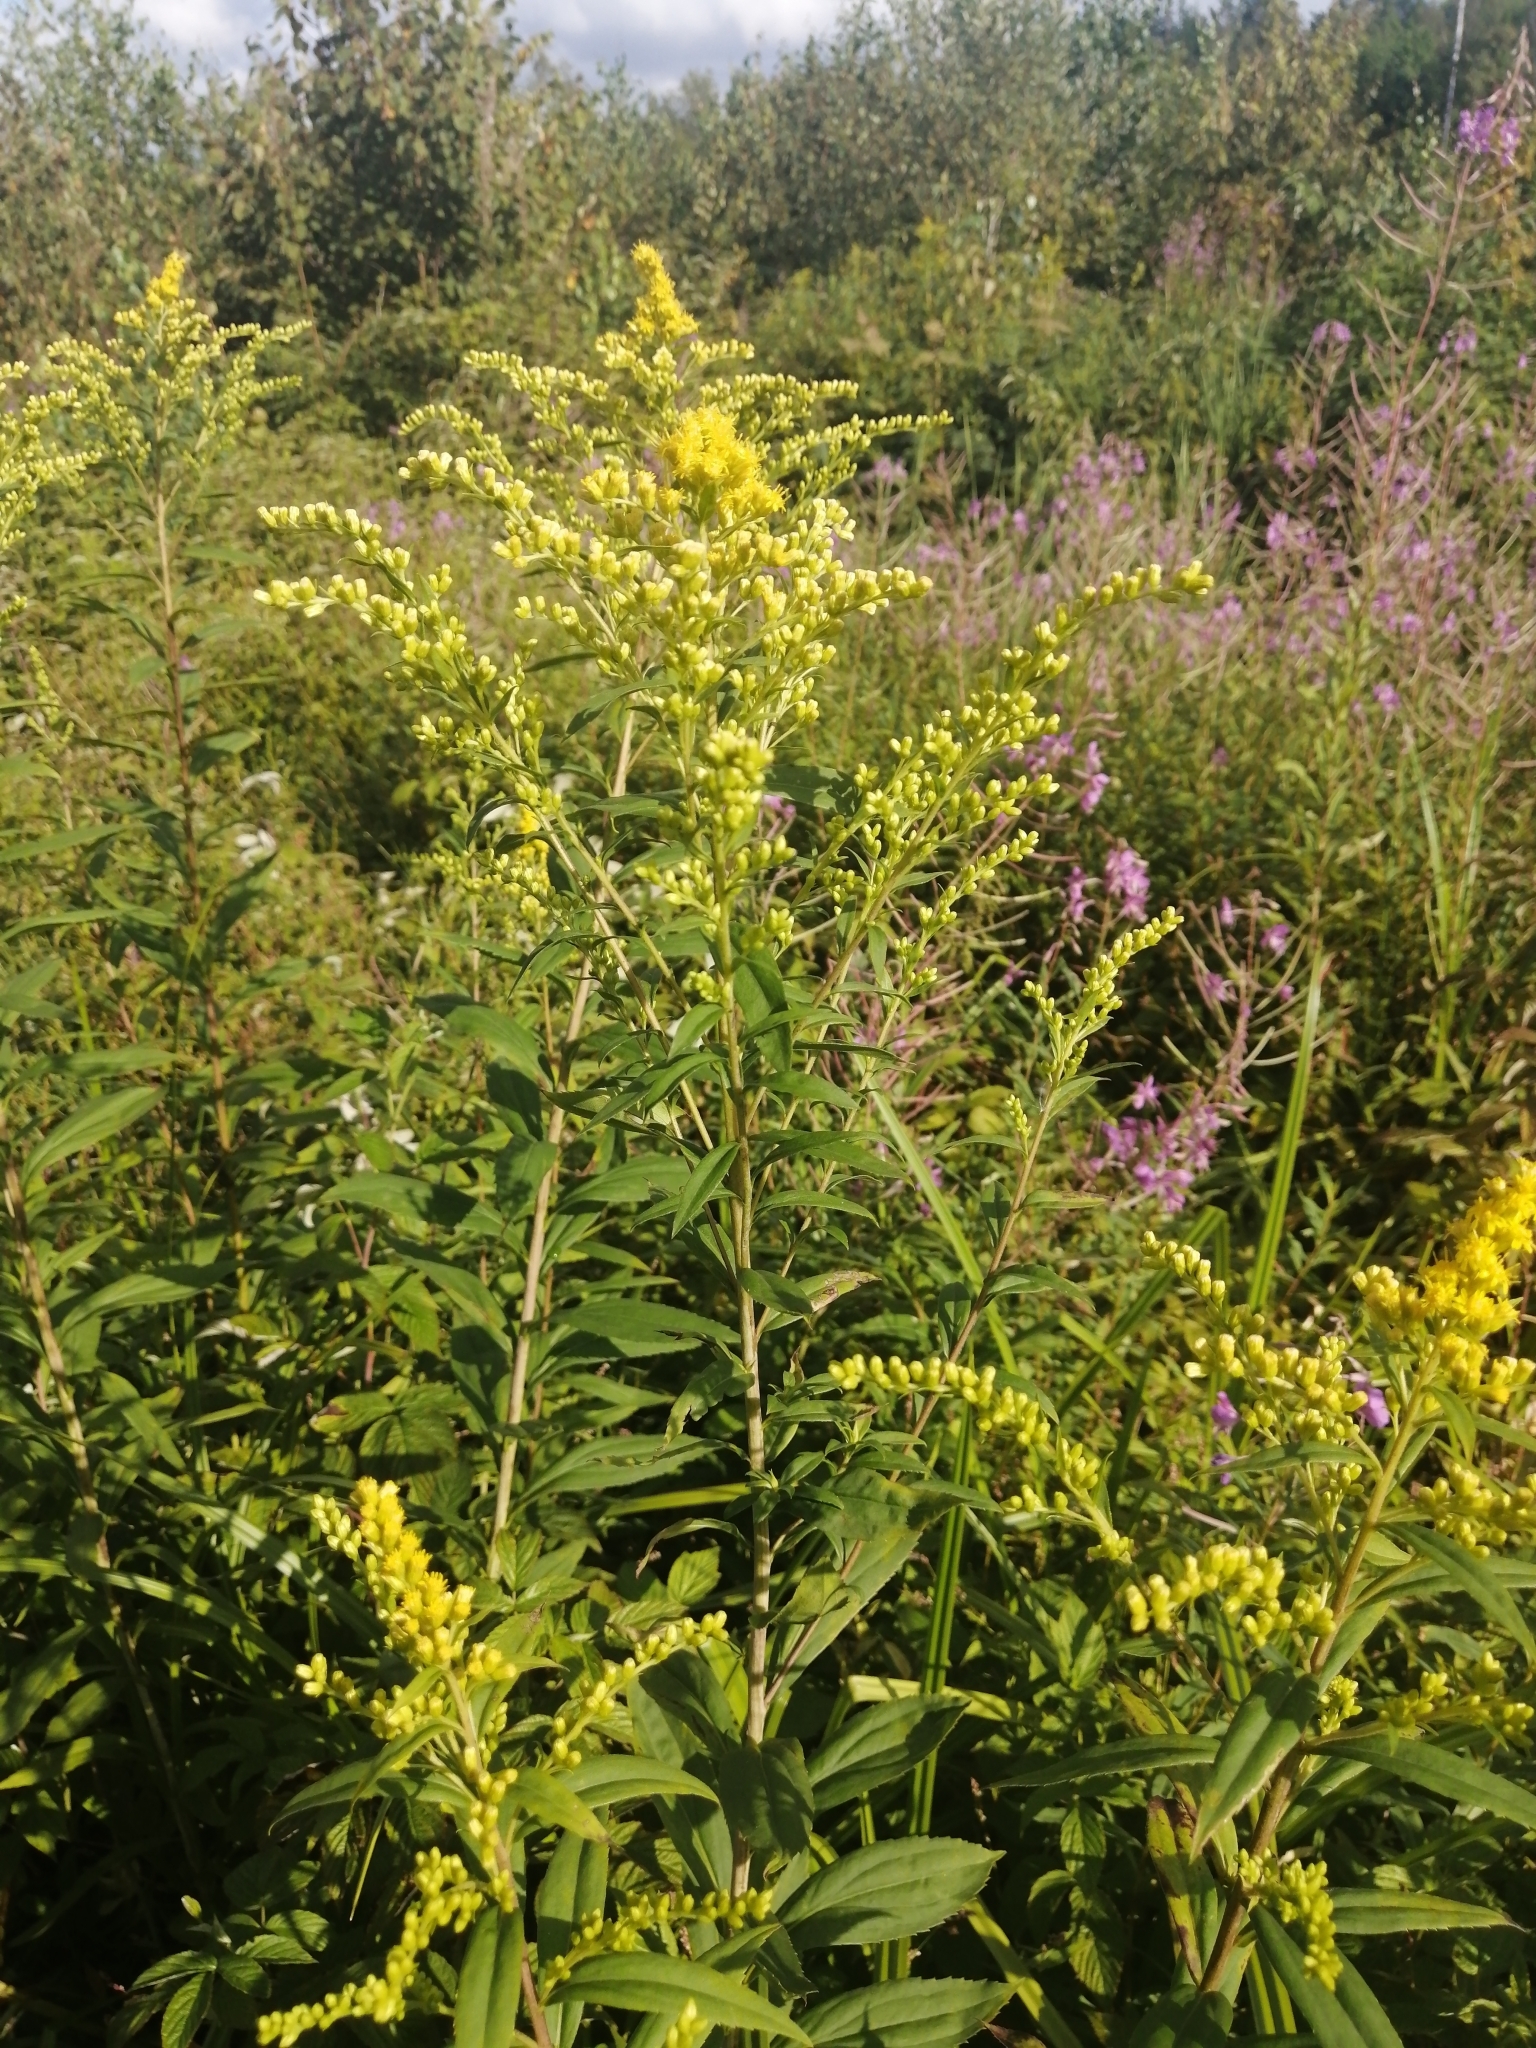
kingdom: Plantae
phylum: Tracheophyta
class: Magnoliopsida
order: Asterales
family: Asteraceae
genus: Solidago
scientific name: Solidago gigantea
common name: Giant goldenrod
